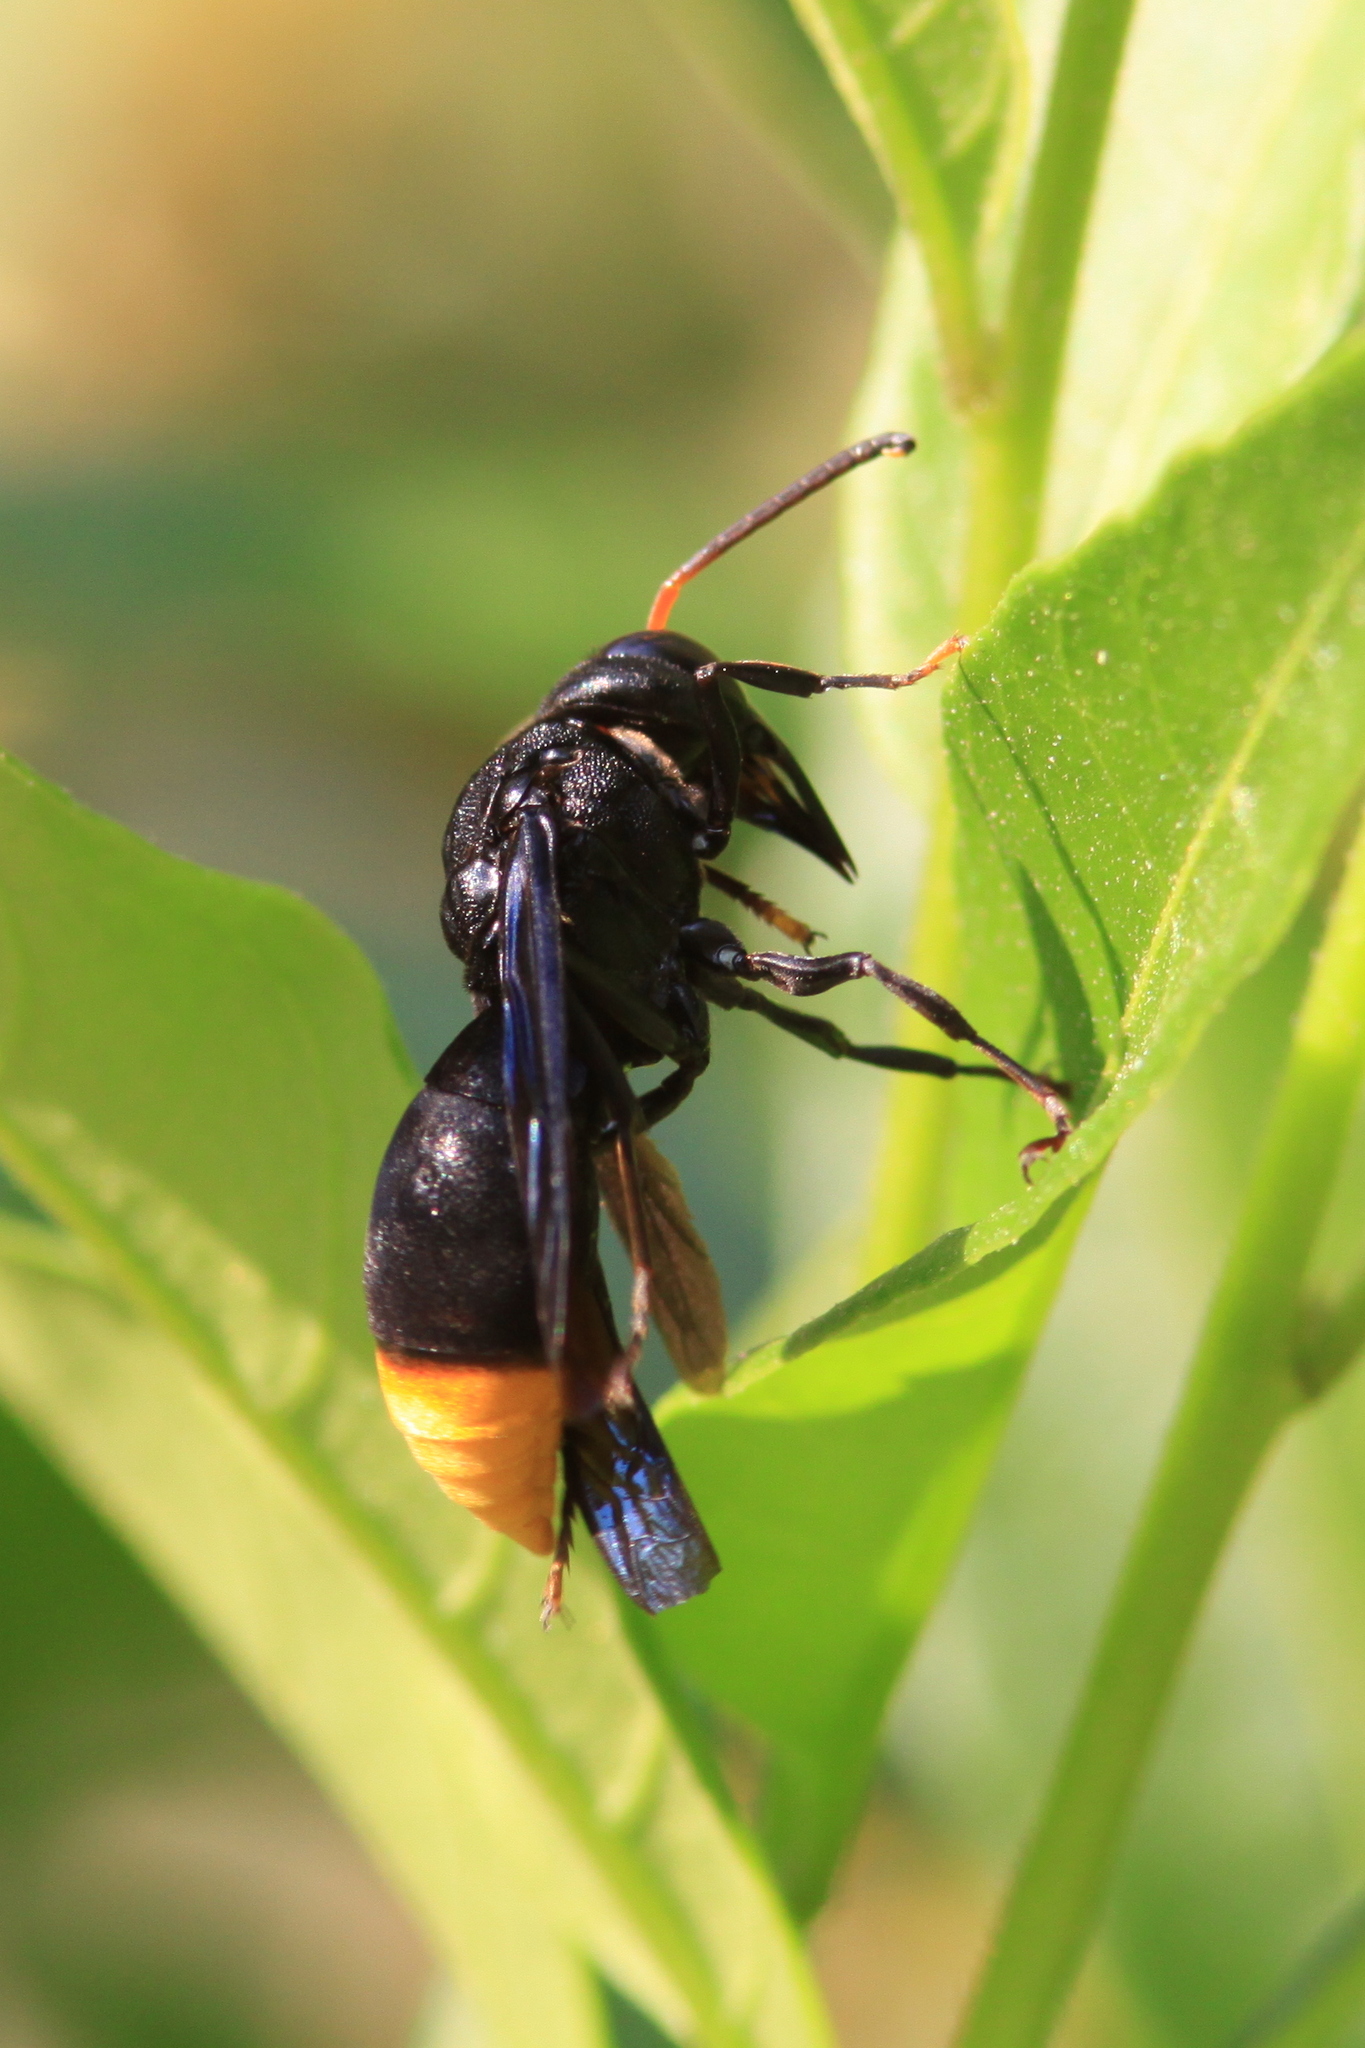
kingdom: Animalia
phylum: Arthropoda
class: Insecta
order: Hymenoptera
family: Vespidae
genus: Synagris
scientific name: Synagris
